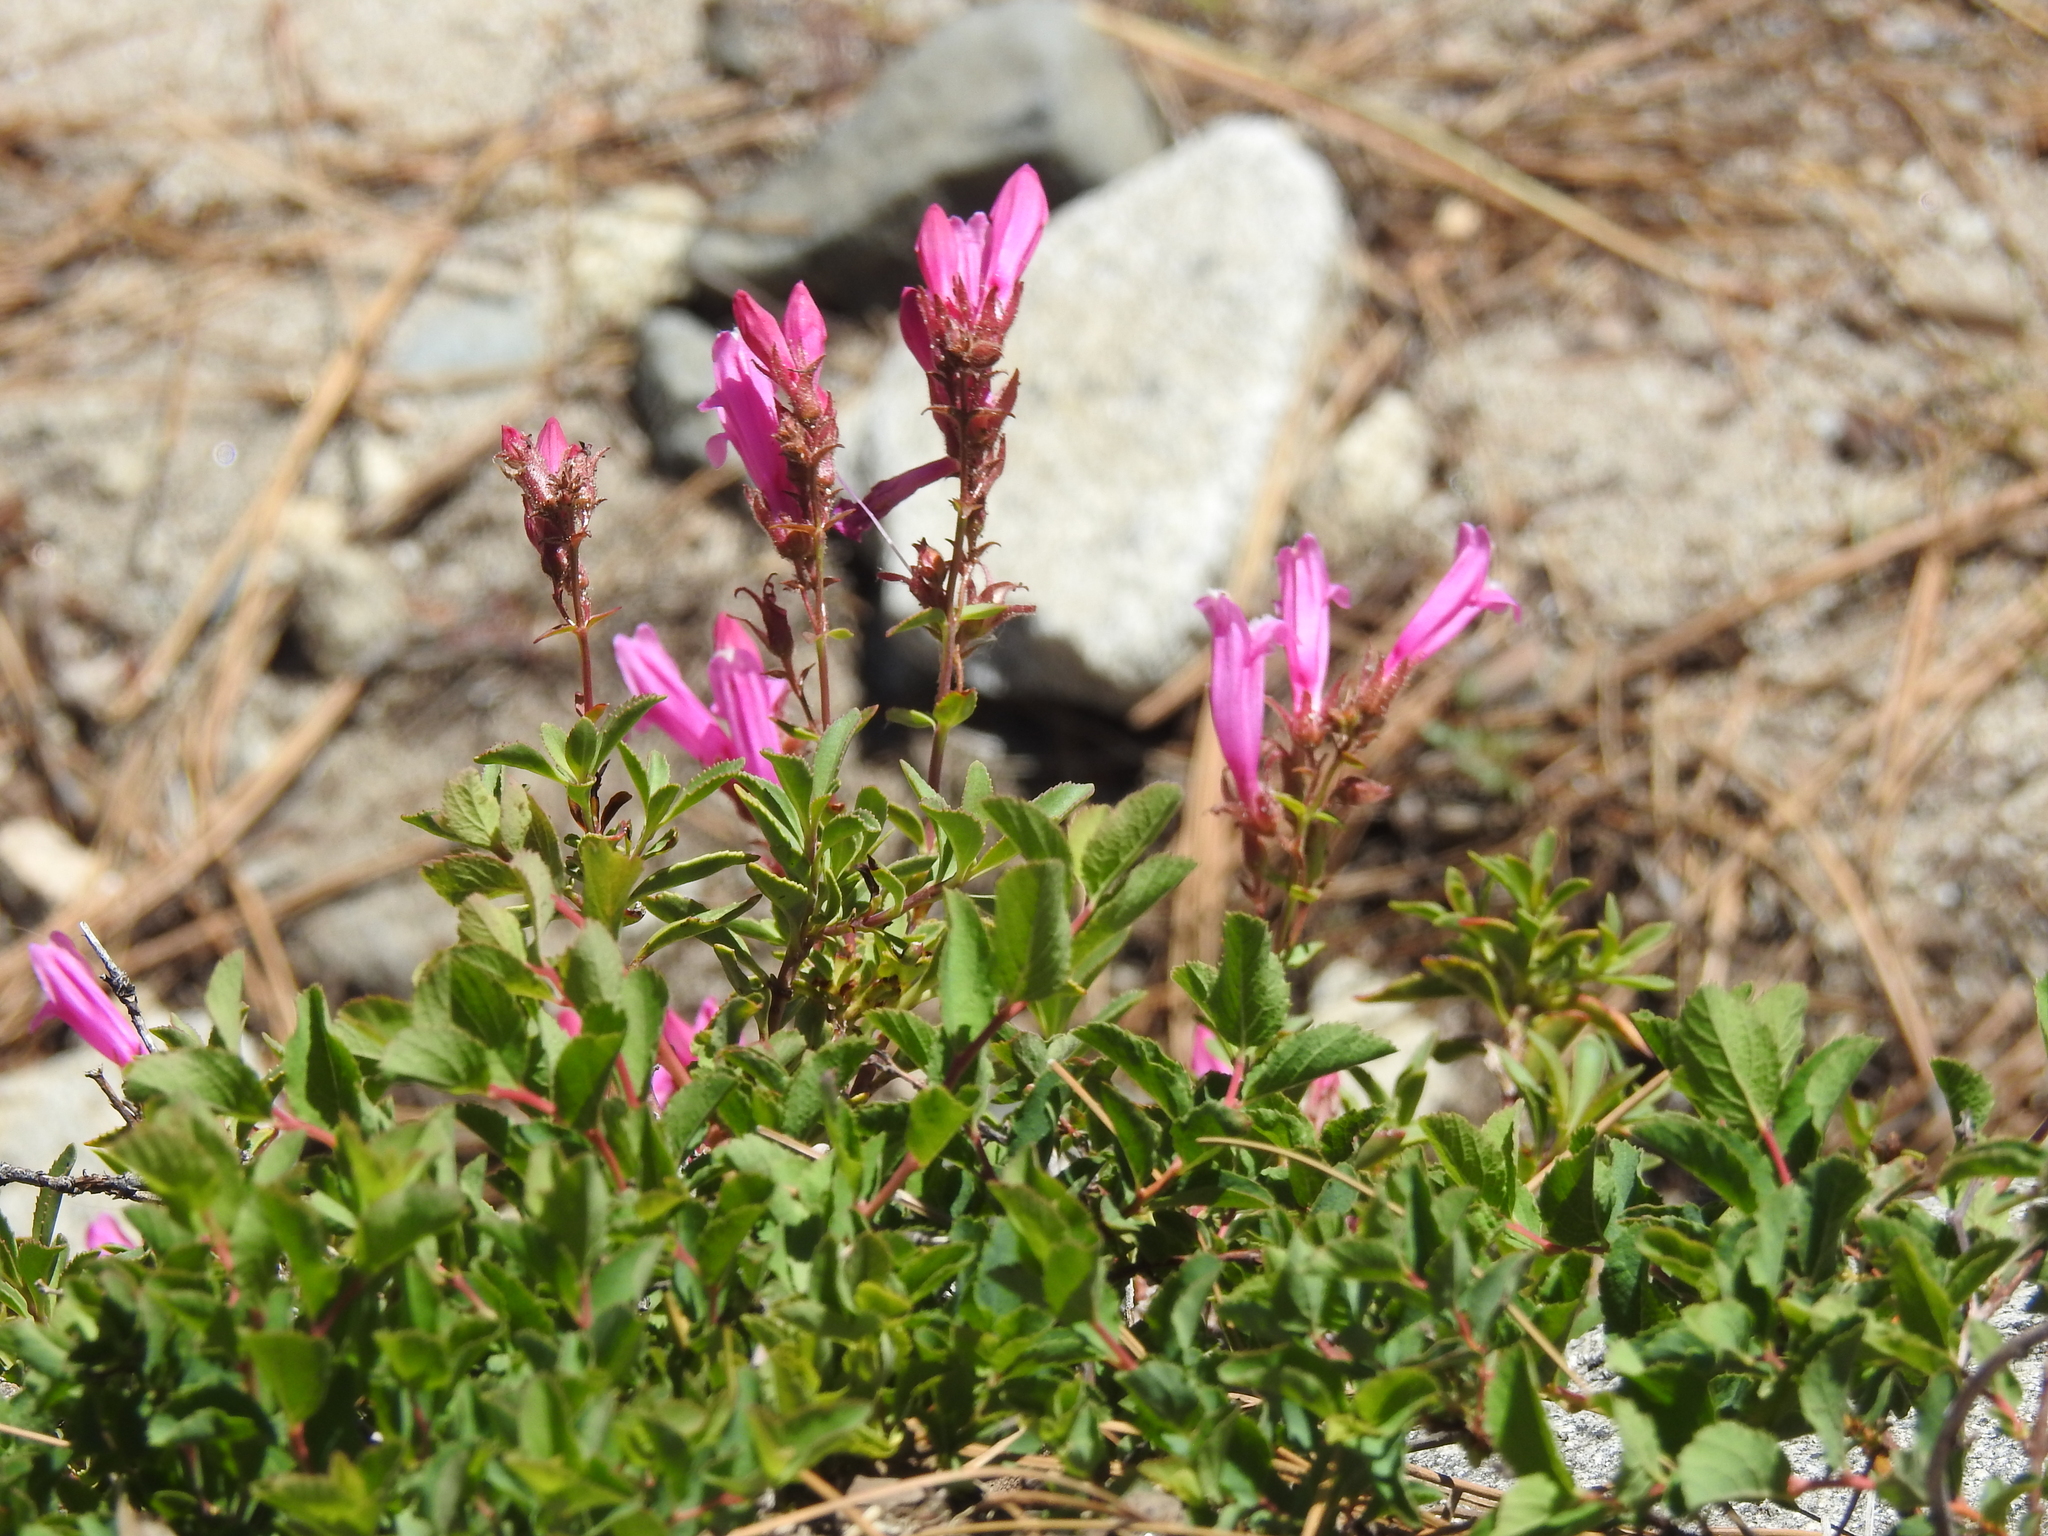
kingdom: Plantae
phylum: Tracheophyta
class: Magnoliopsida
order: Lamiales
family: Plantaginaceae
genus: Penstemon
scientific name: Penstemon newberryi
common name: Mountain-pride
